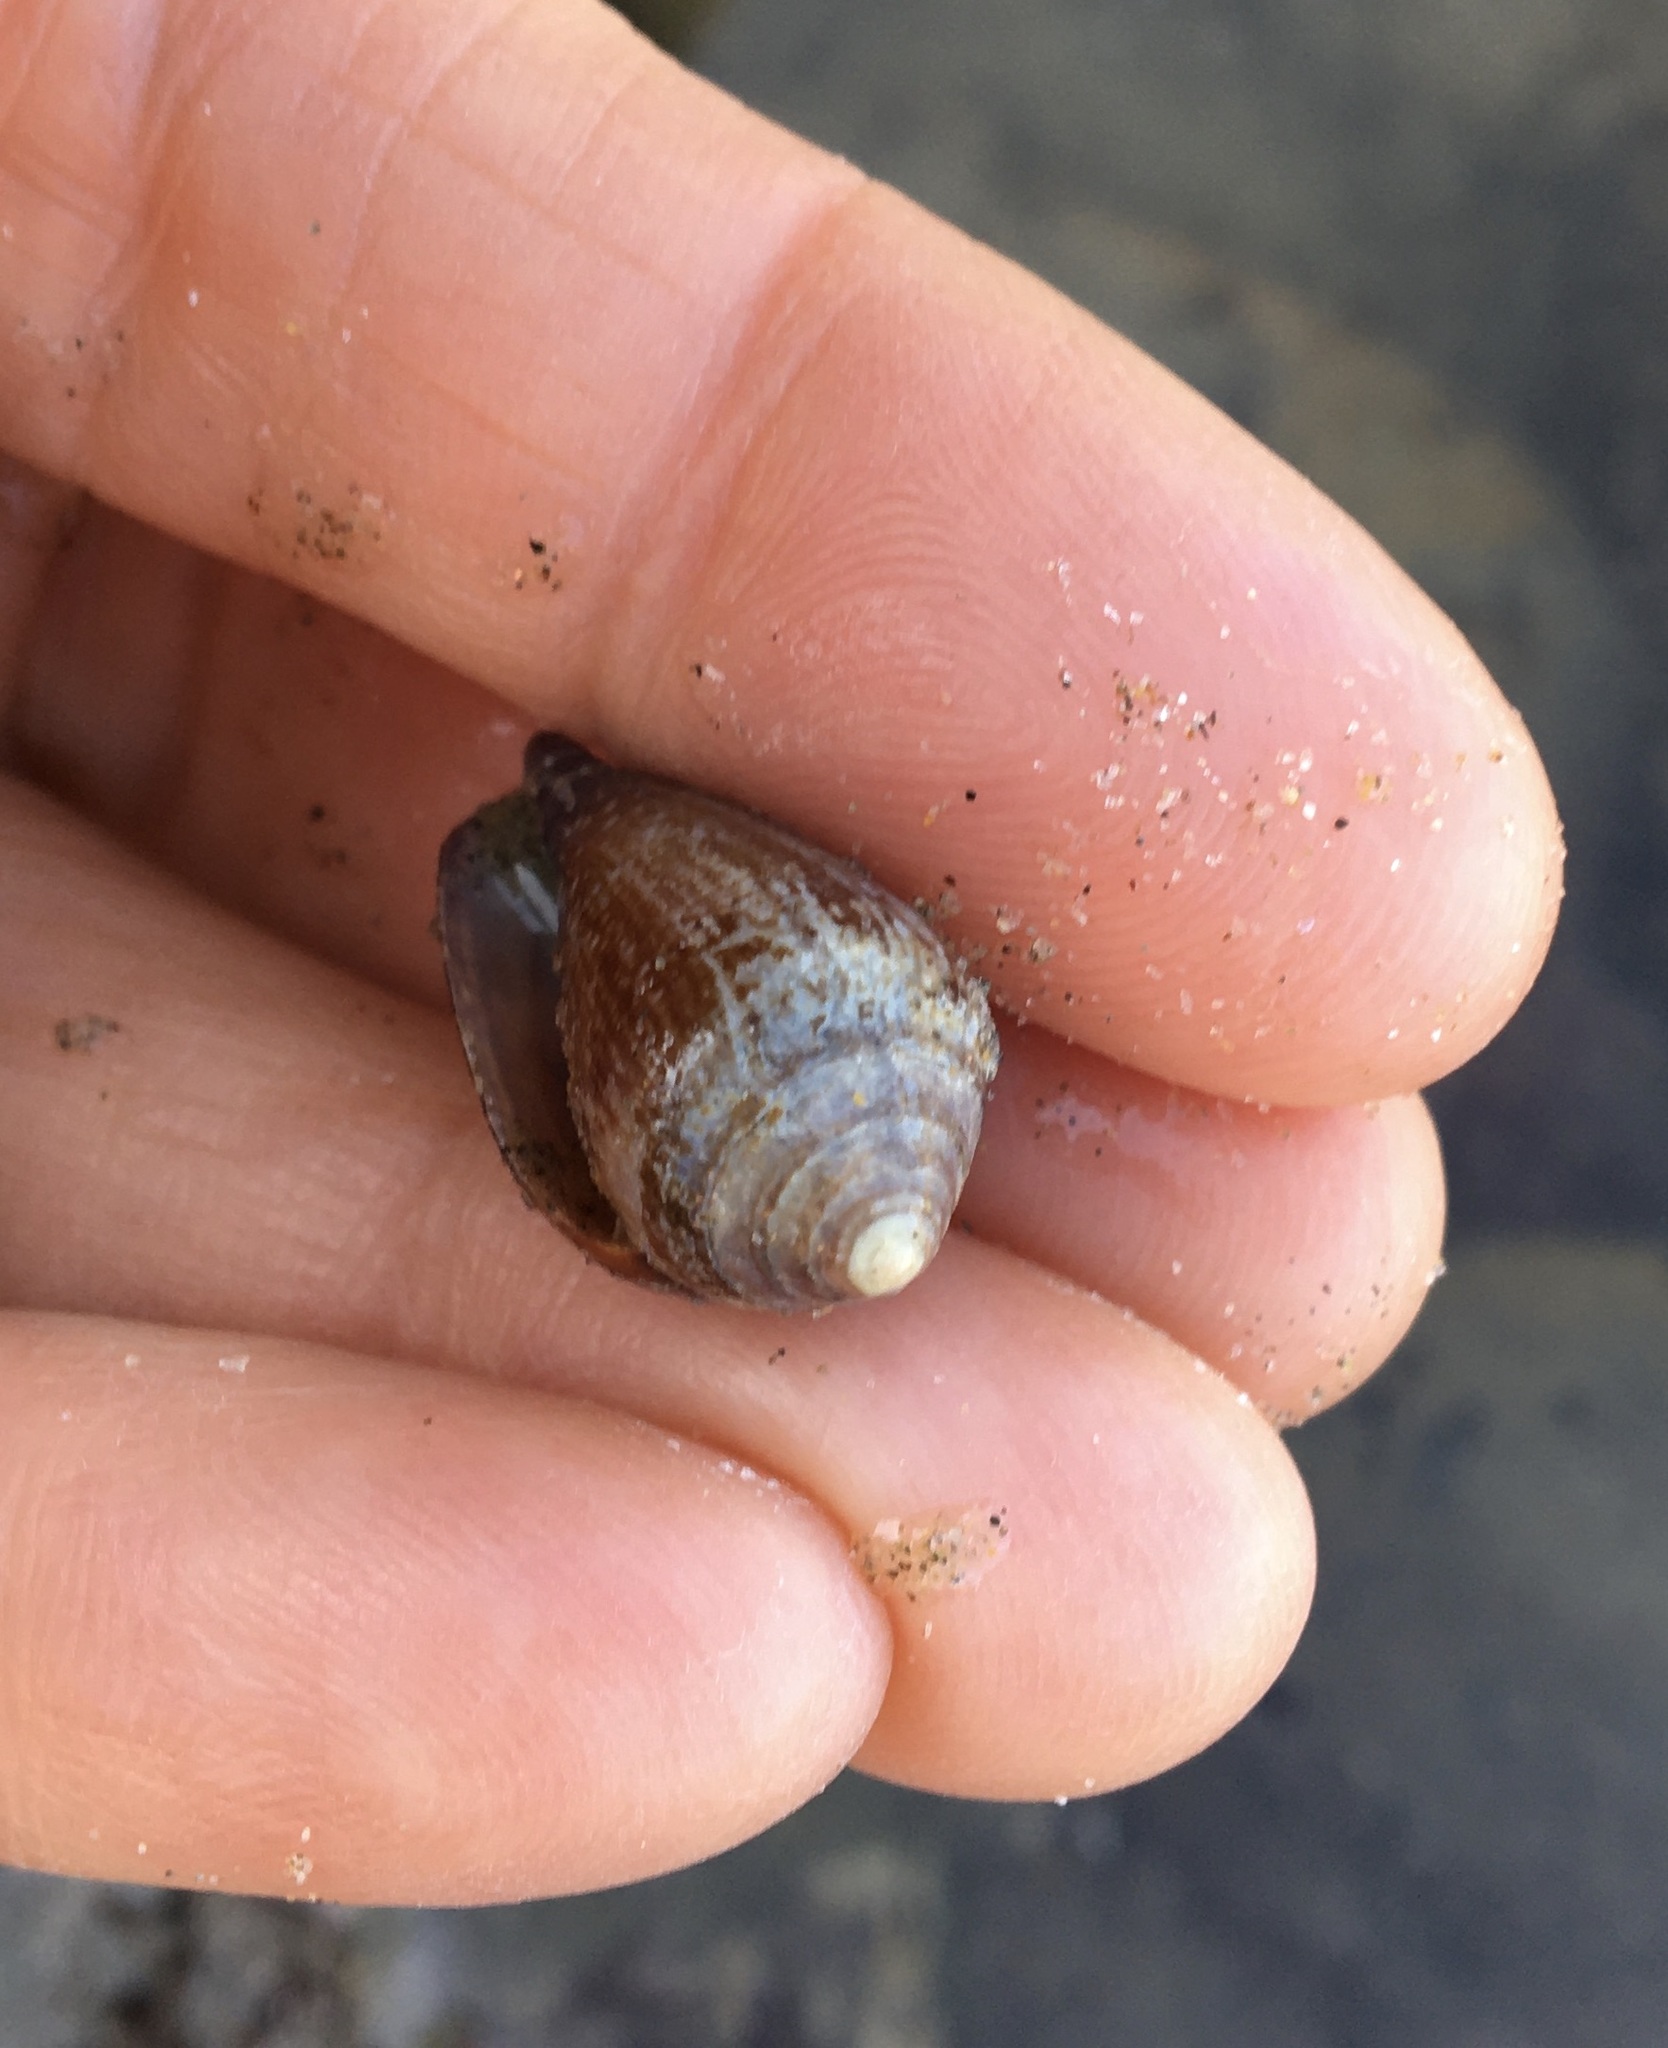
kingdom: Animalia
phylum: Mollusca
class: Gastropoda
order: Neogastropoda
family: Conidae
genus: Californiconus
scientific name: Californiconus californicus
